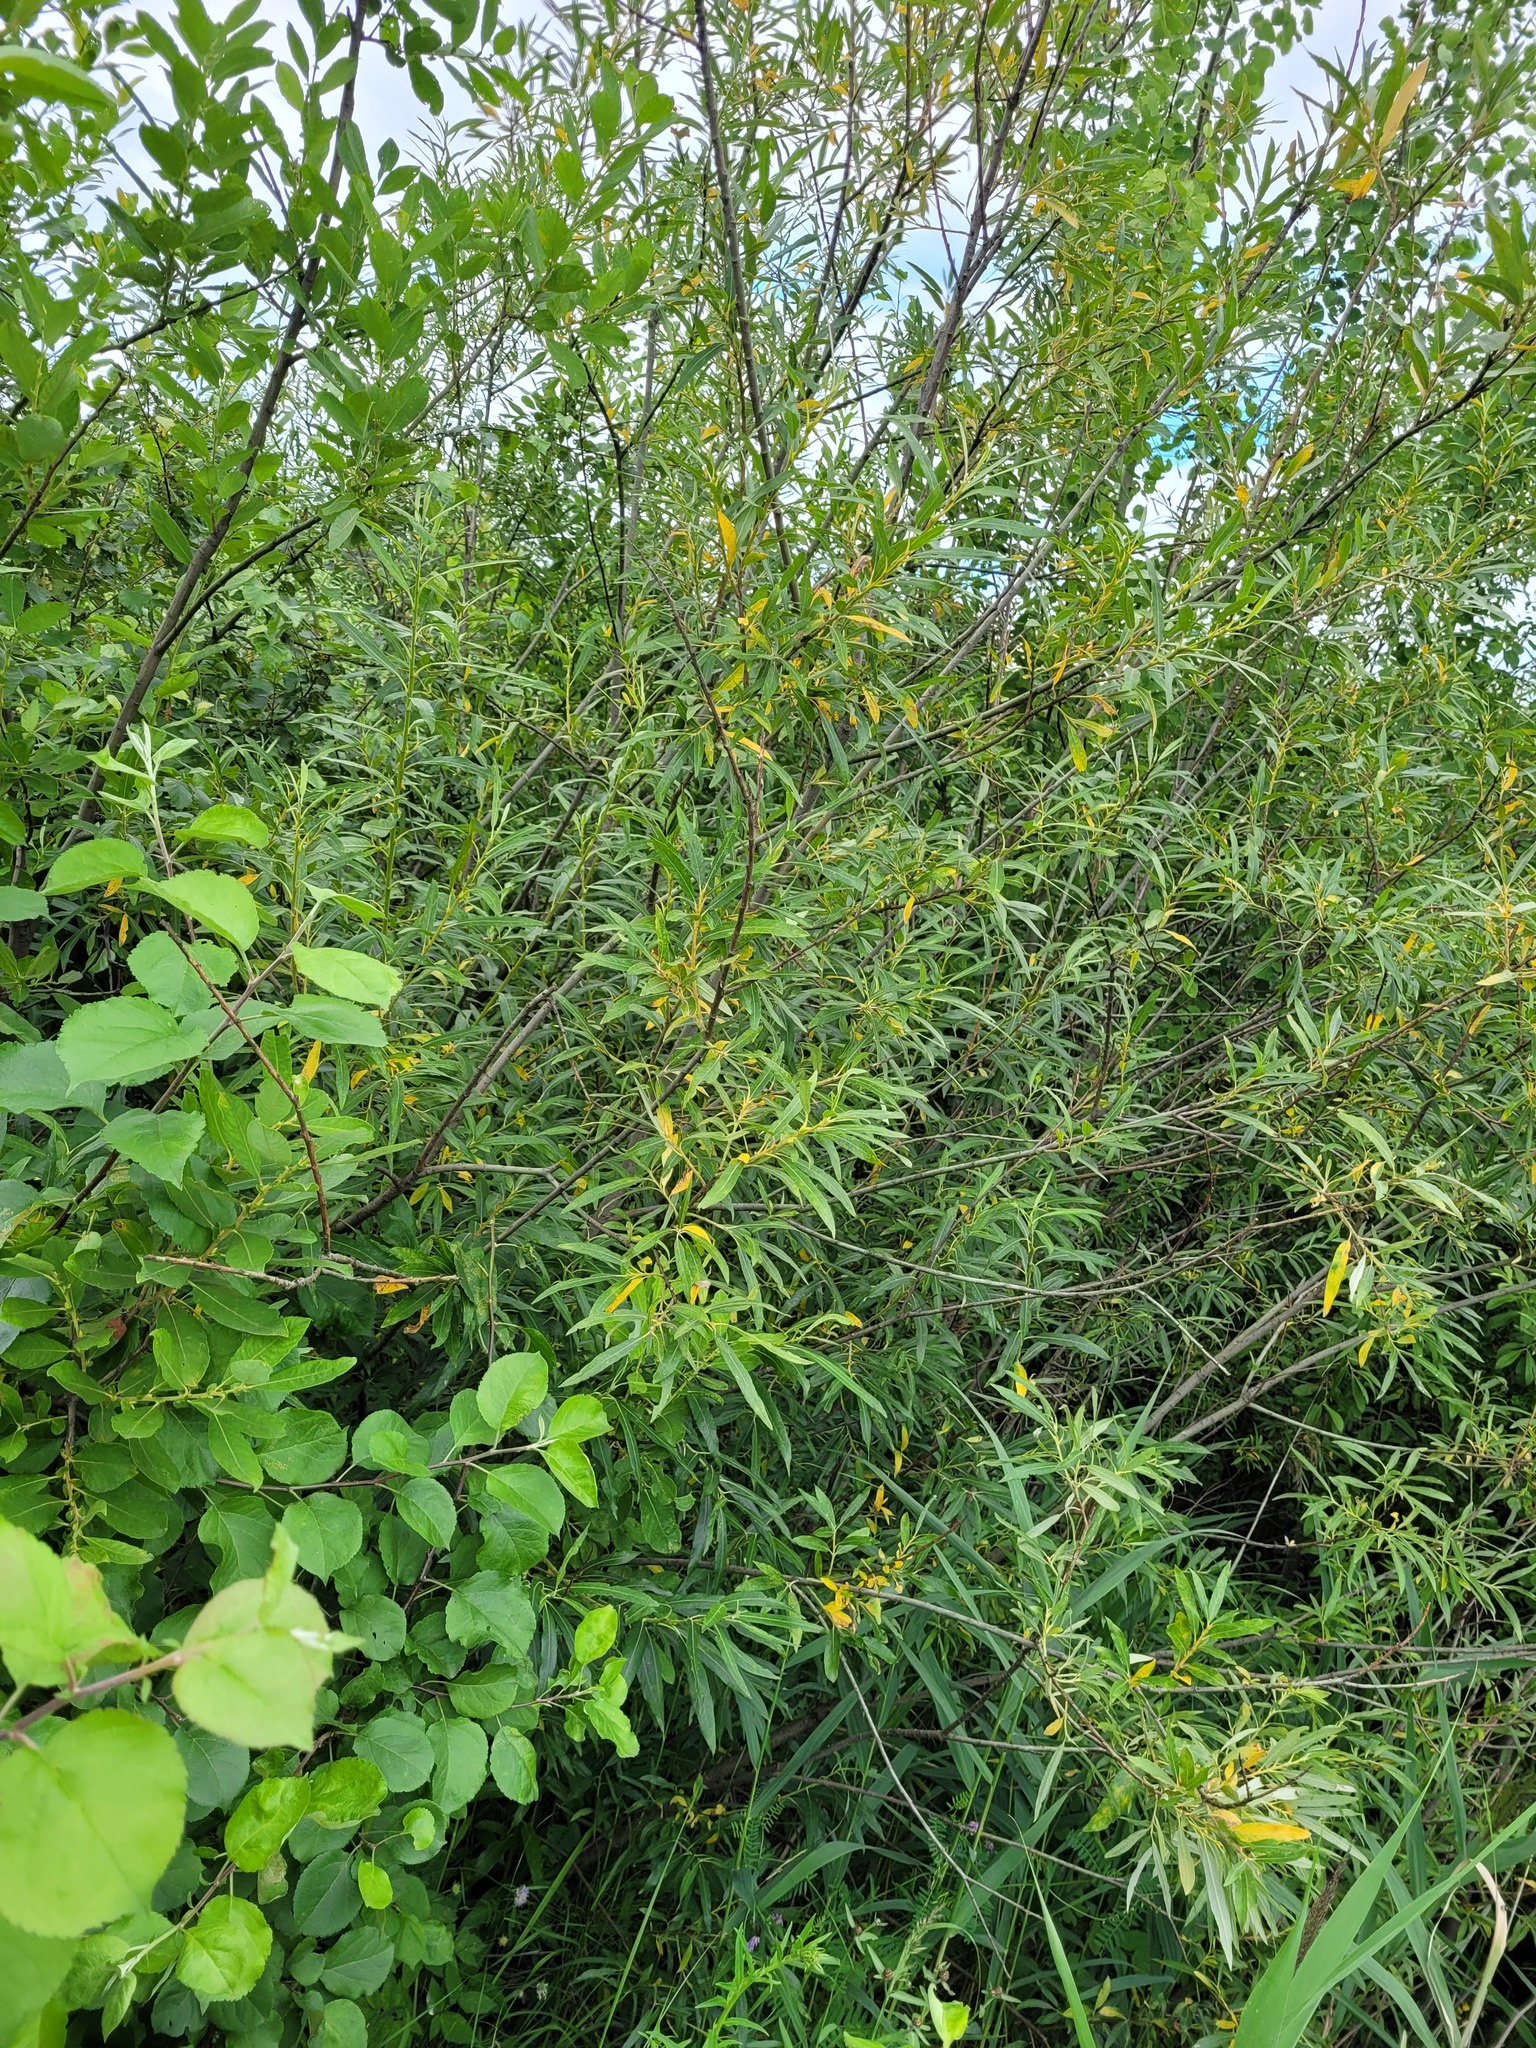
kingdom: Plantae
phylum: Tracheophyta
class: Magnoliopsida
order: Malpighiales
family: Salicaceae
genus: Salix
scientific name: Salix viminalis
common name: Osier
